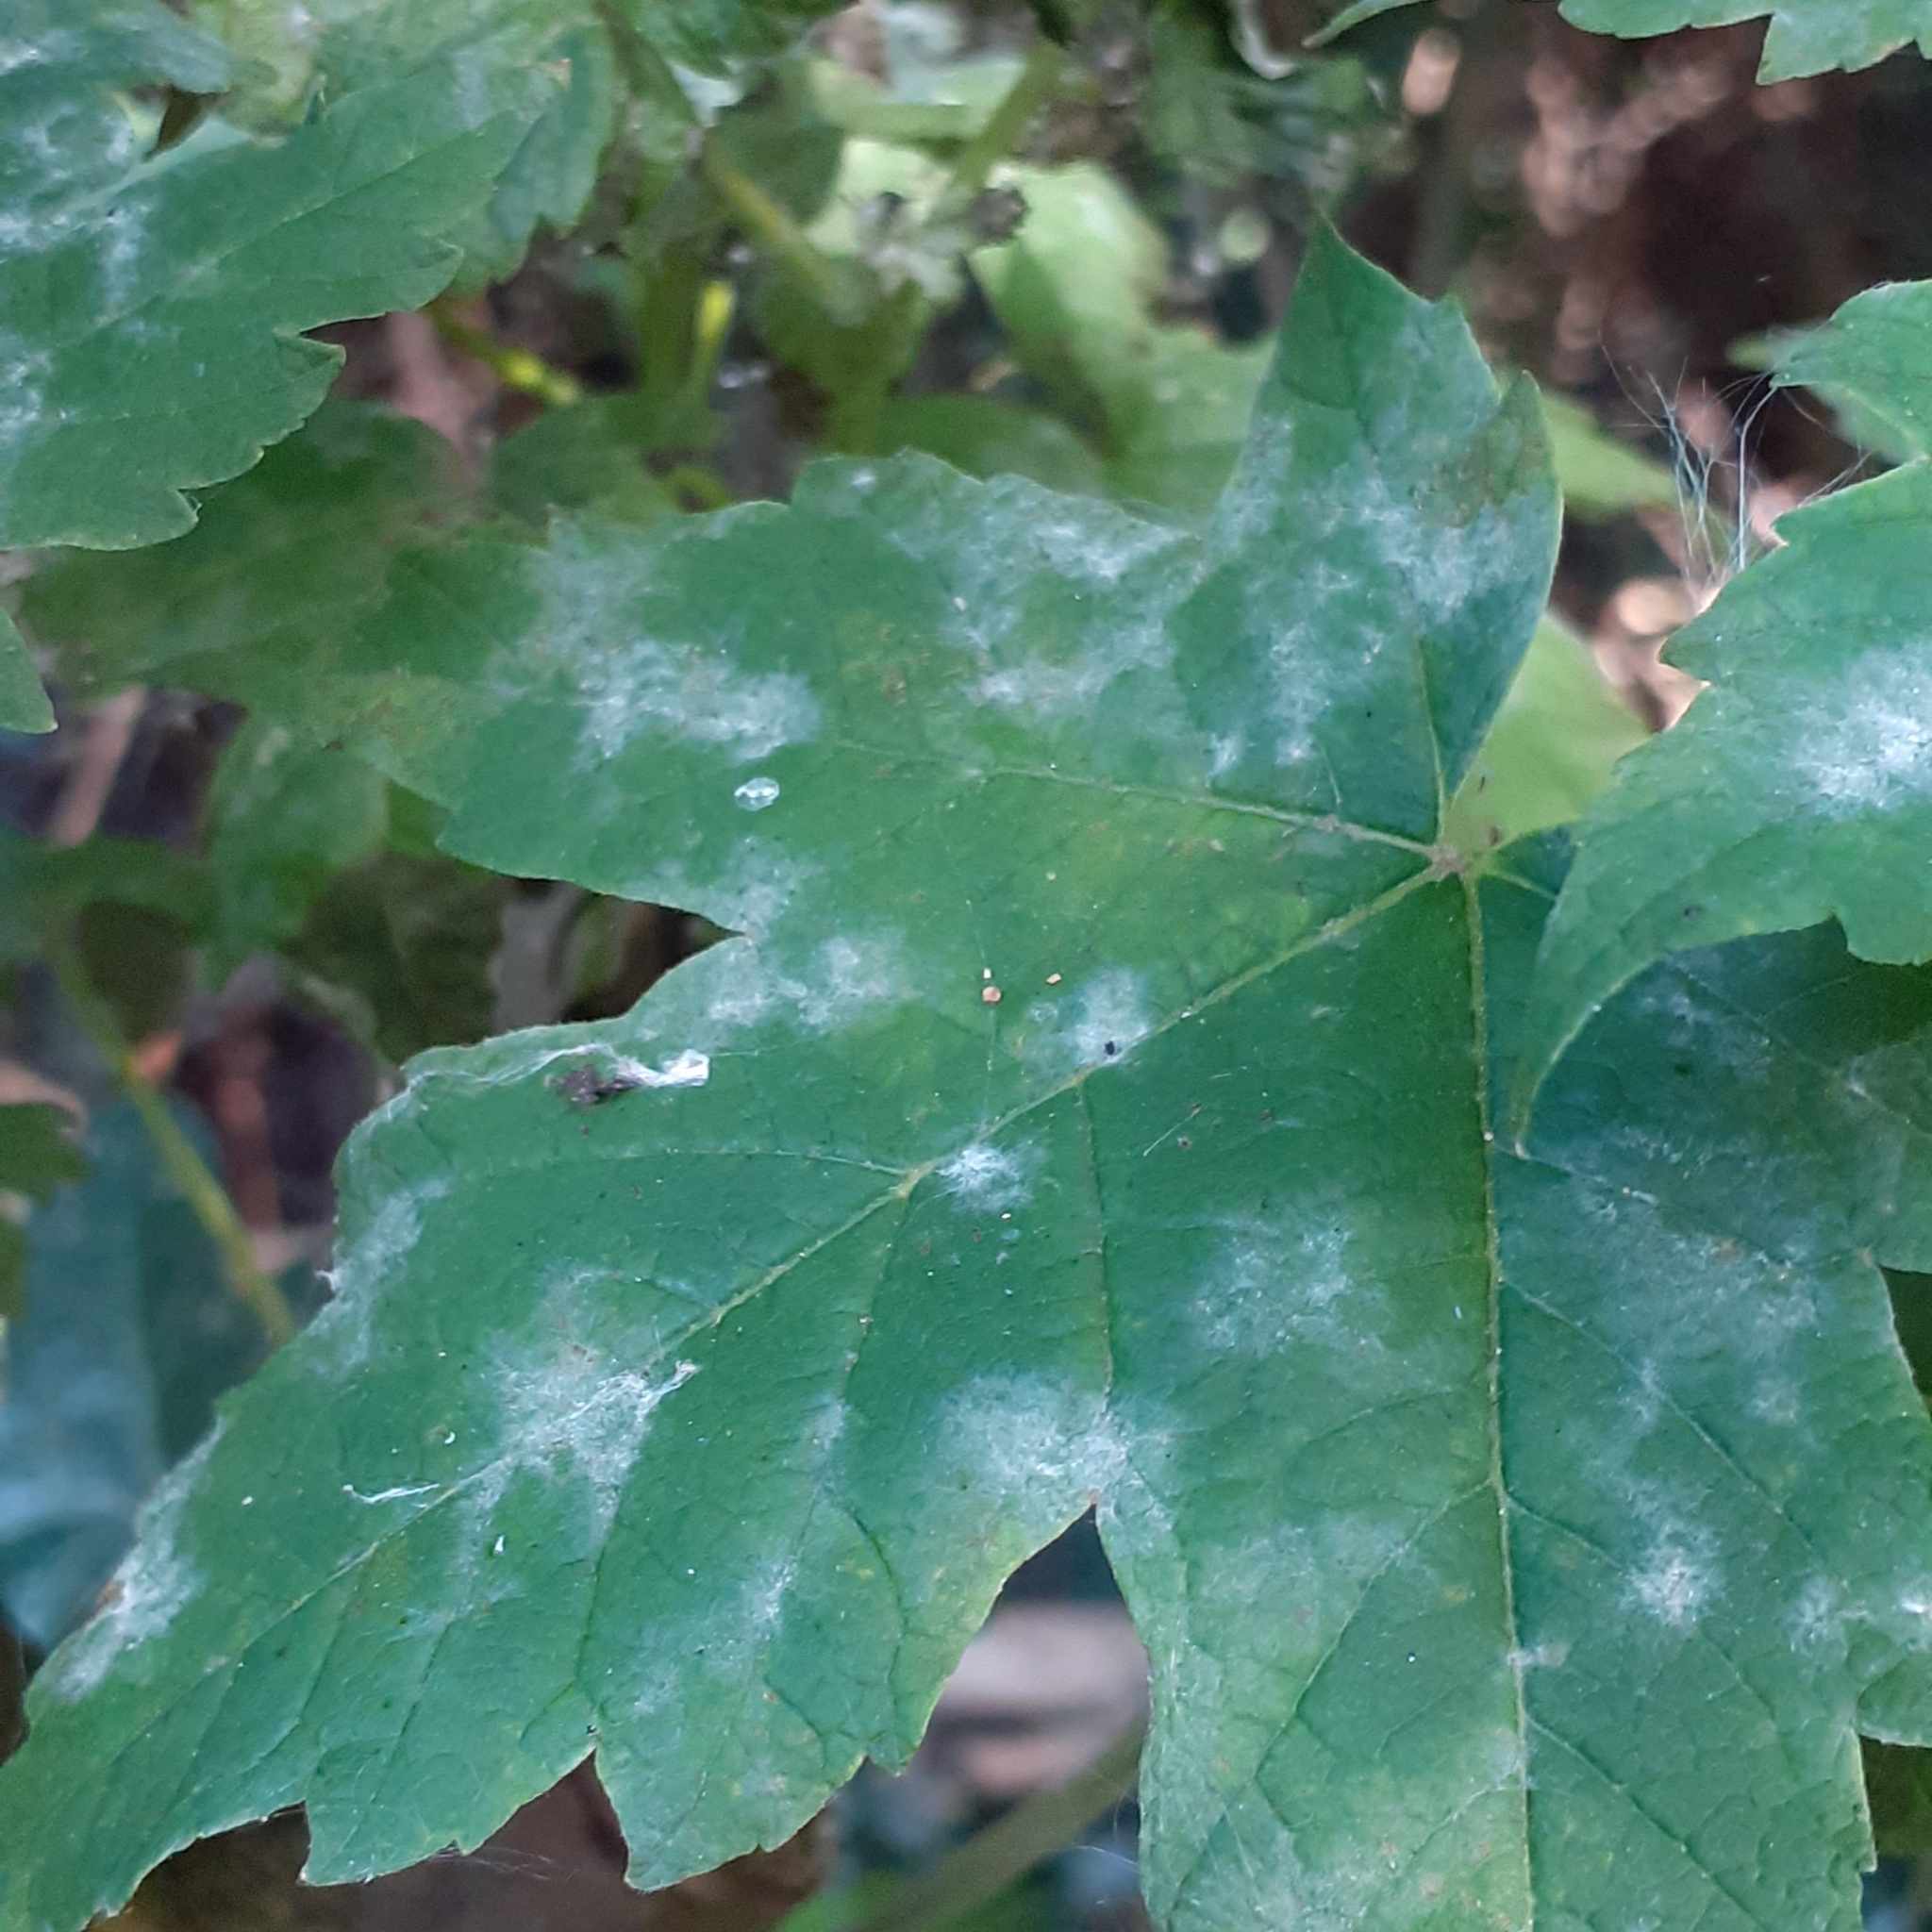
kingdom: Fungi
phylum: Ascomycota
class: Leotiomycetes
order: Helotiales
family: Erysiphaceae
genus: Sawadaea
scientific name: Sawadaea bicornis
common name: Maple mildew
